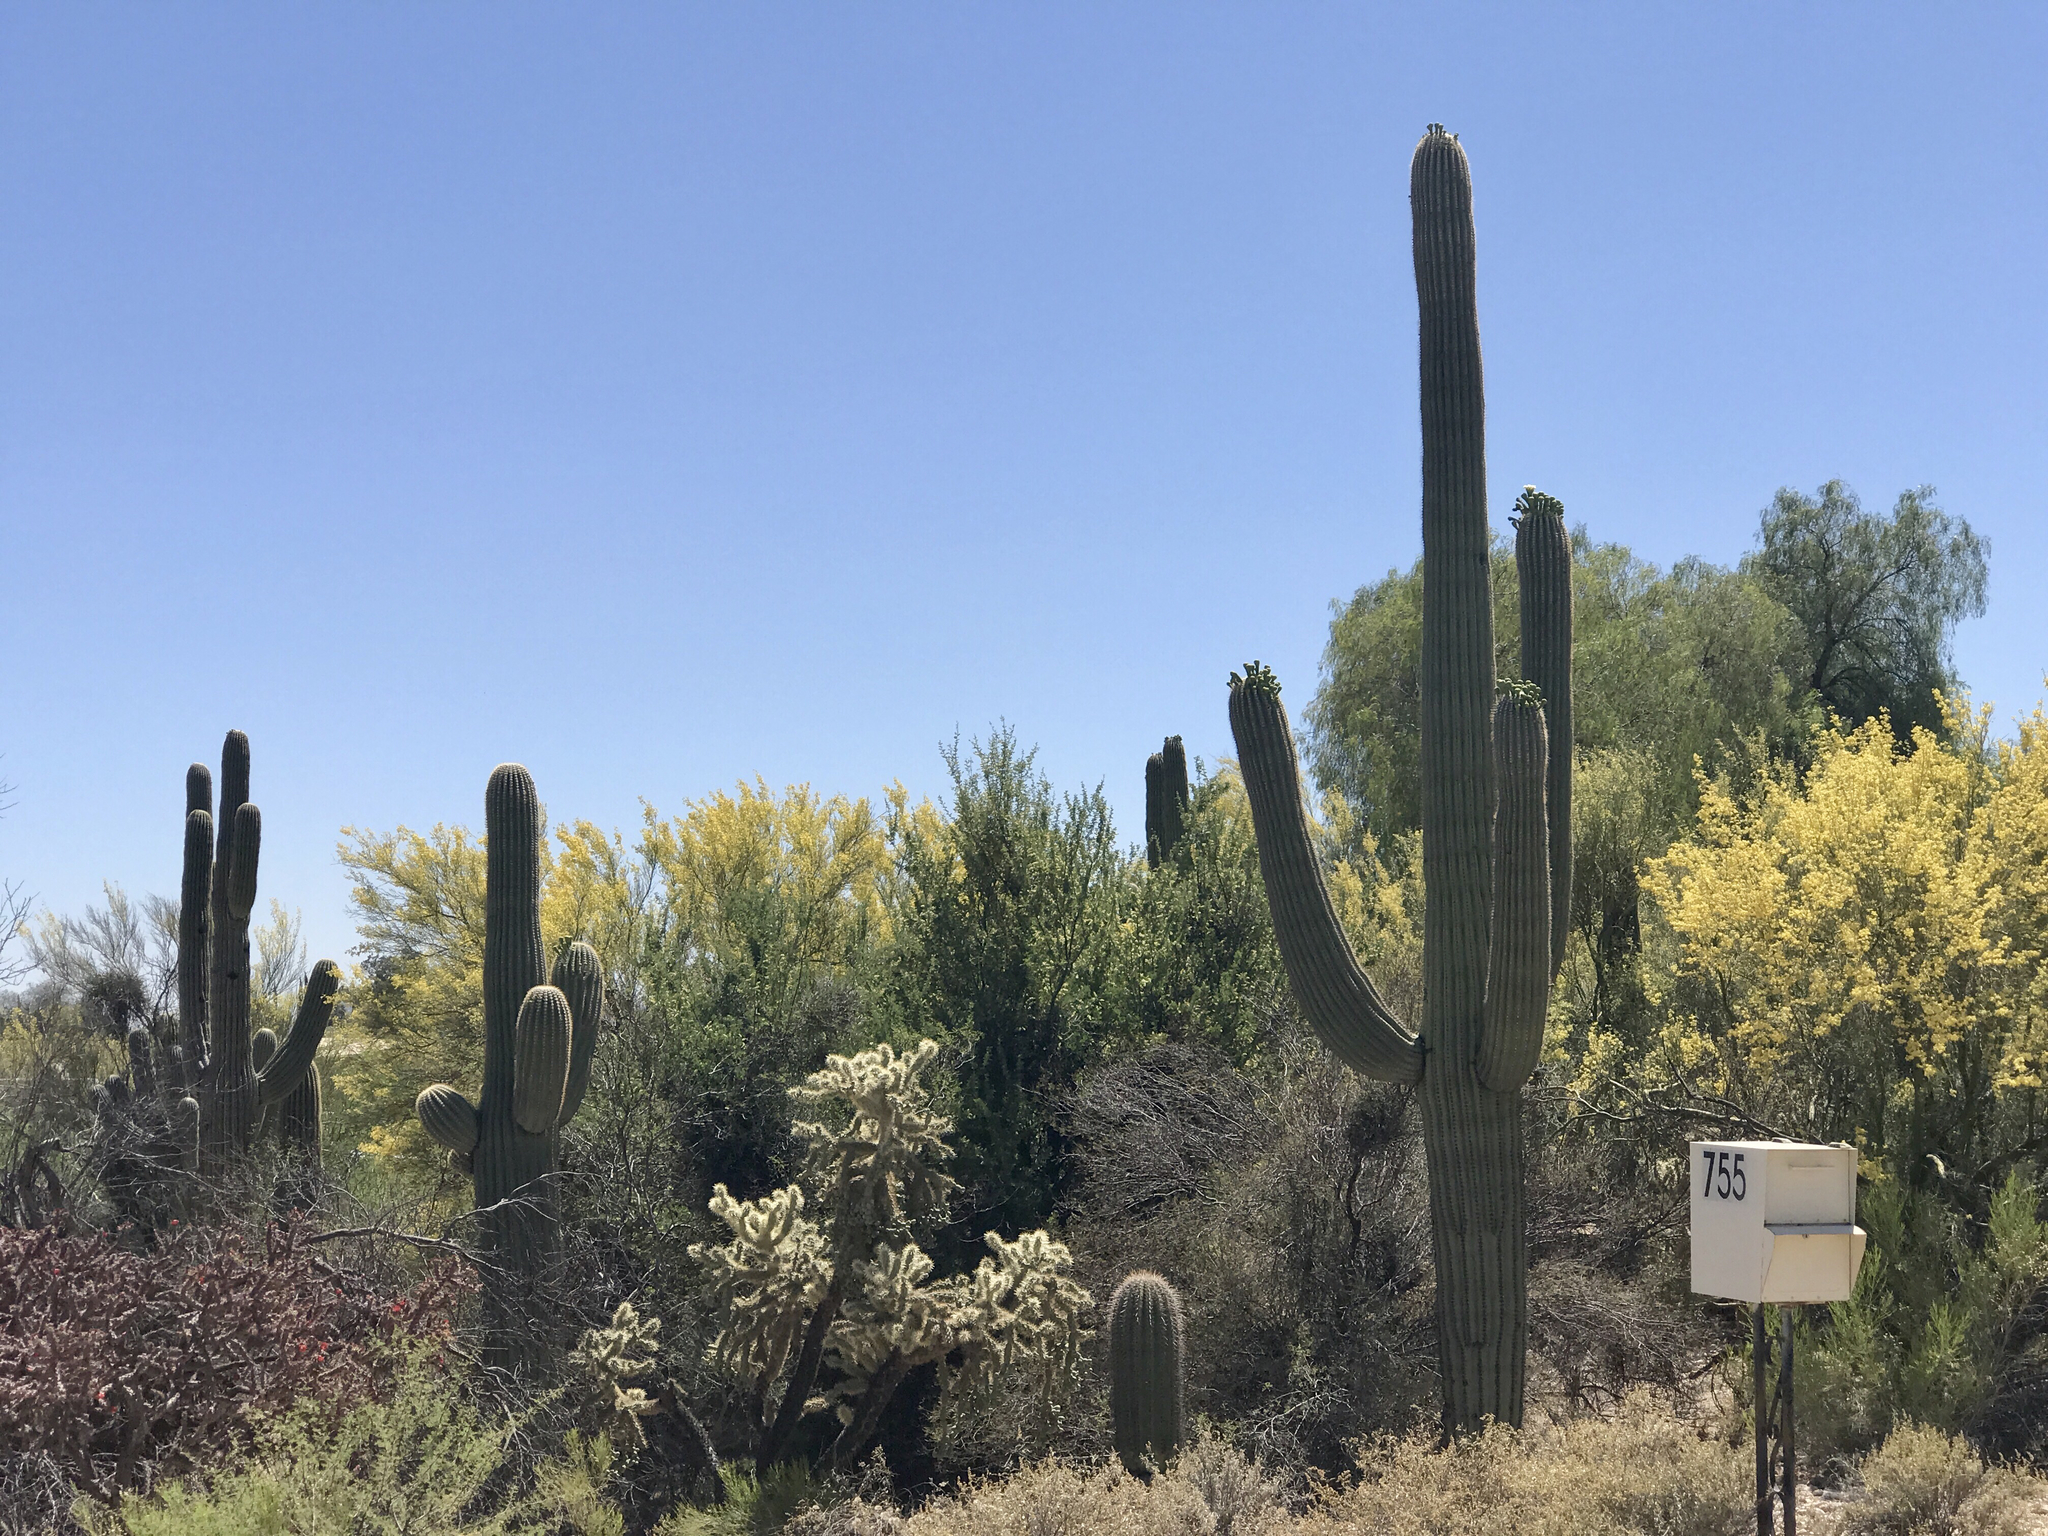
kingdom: Plantae
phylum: Tracheophyta
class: Magnoliopsida
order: Caryophyllales
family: Cactaceae
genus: Carnegiea
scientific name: Carnegiea gigantea
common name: Saguaro
